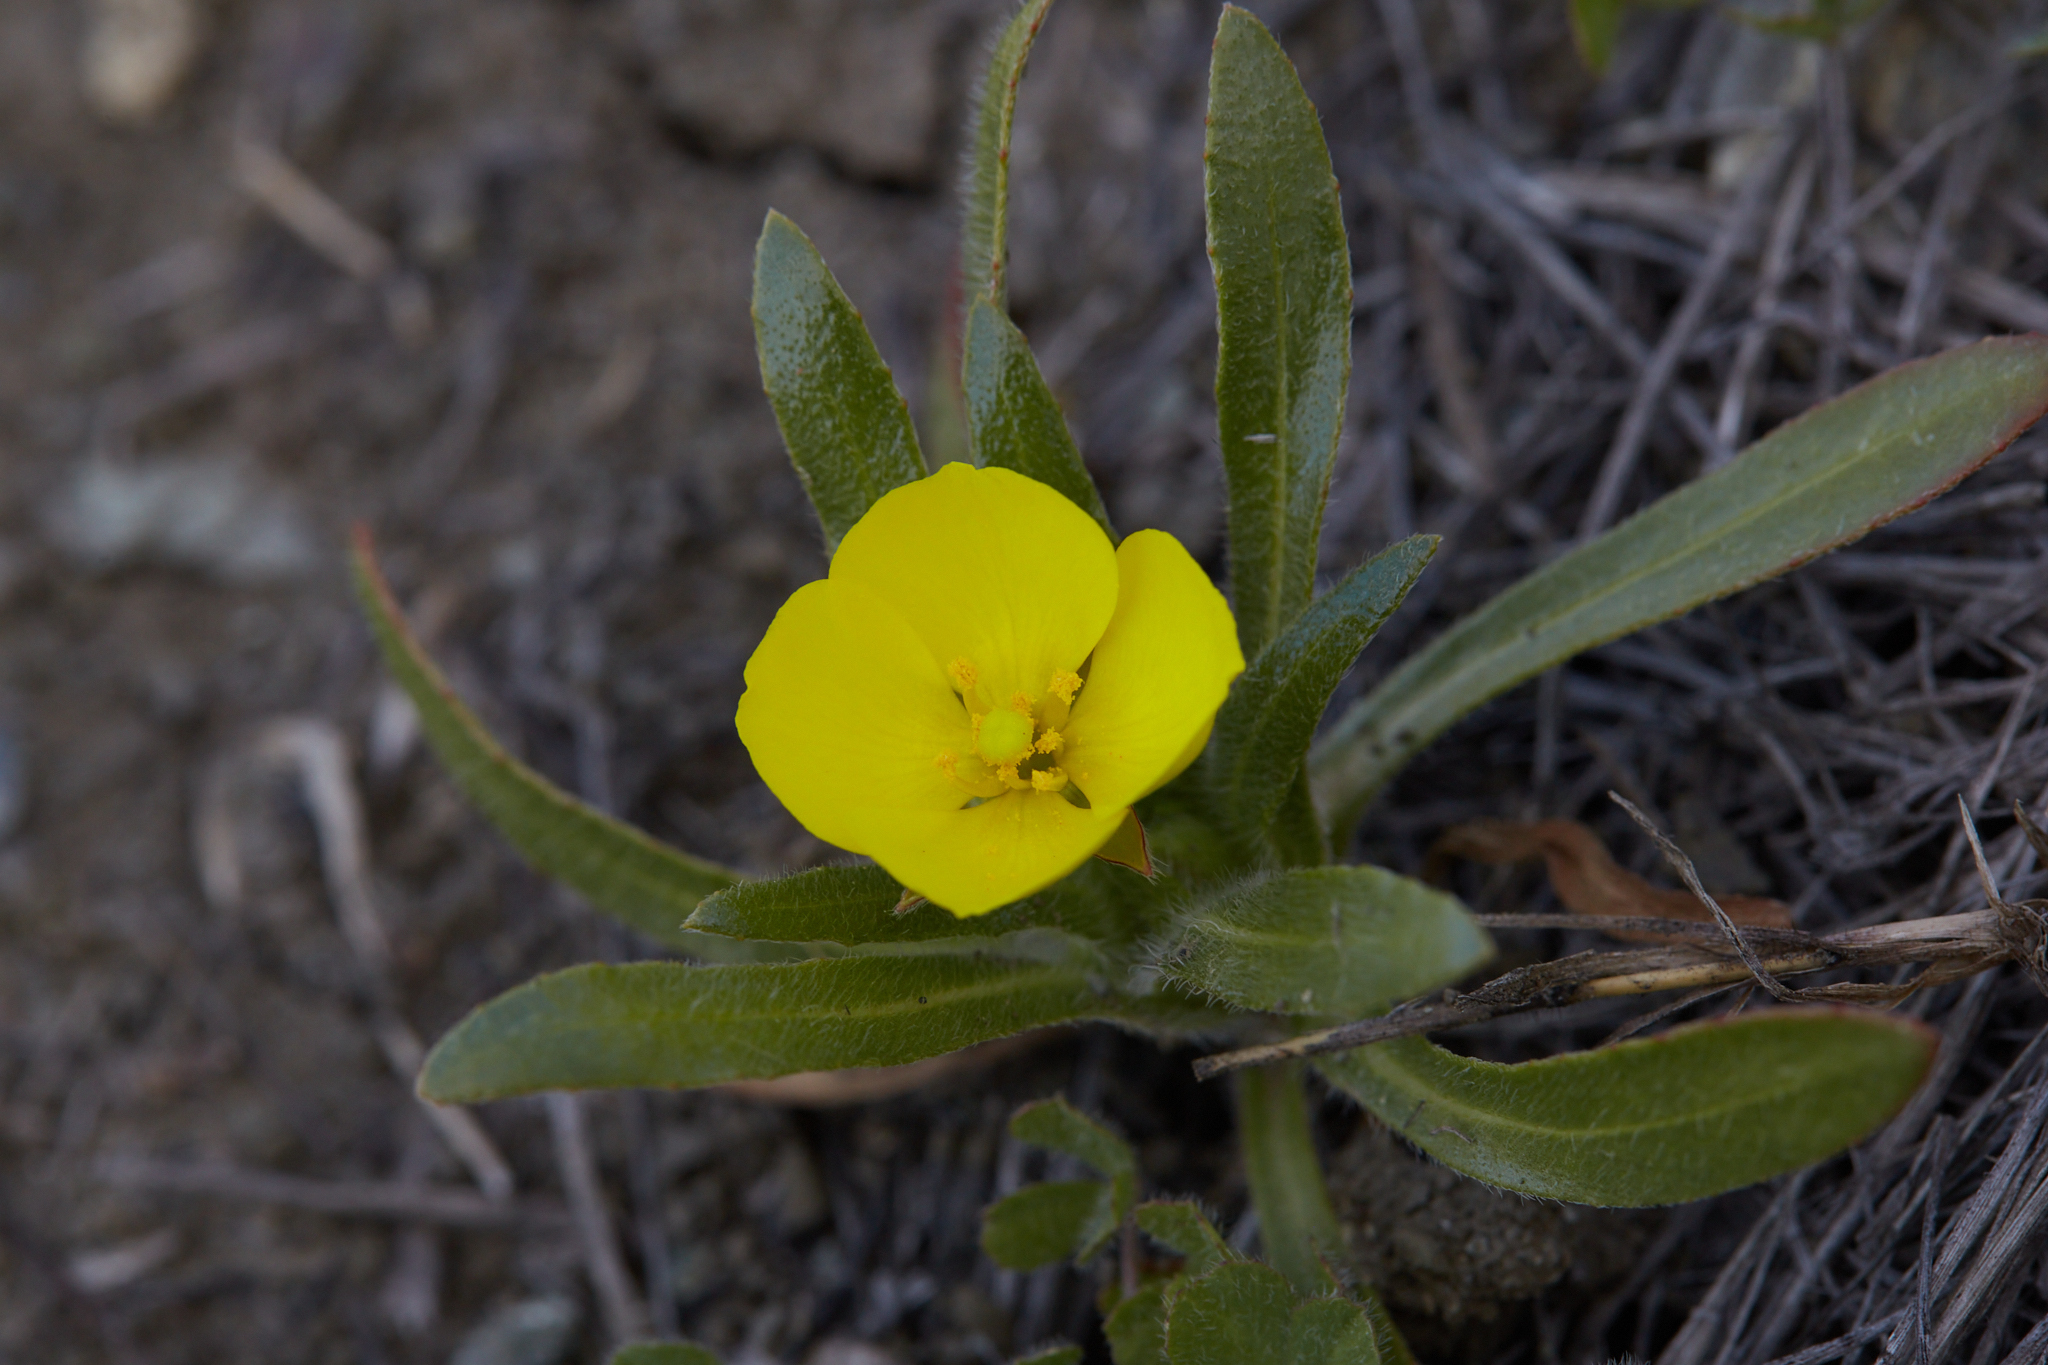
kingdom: Plantae
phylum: Tracheophyta
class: Magnoliopsida
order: Myrtales
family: Onagraceae
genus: Tetrapteron
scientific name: Tetrapteron graciliflorum
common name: Hill suncup
